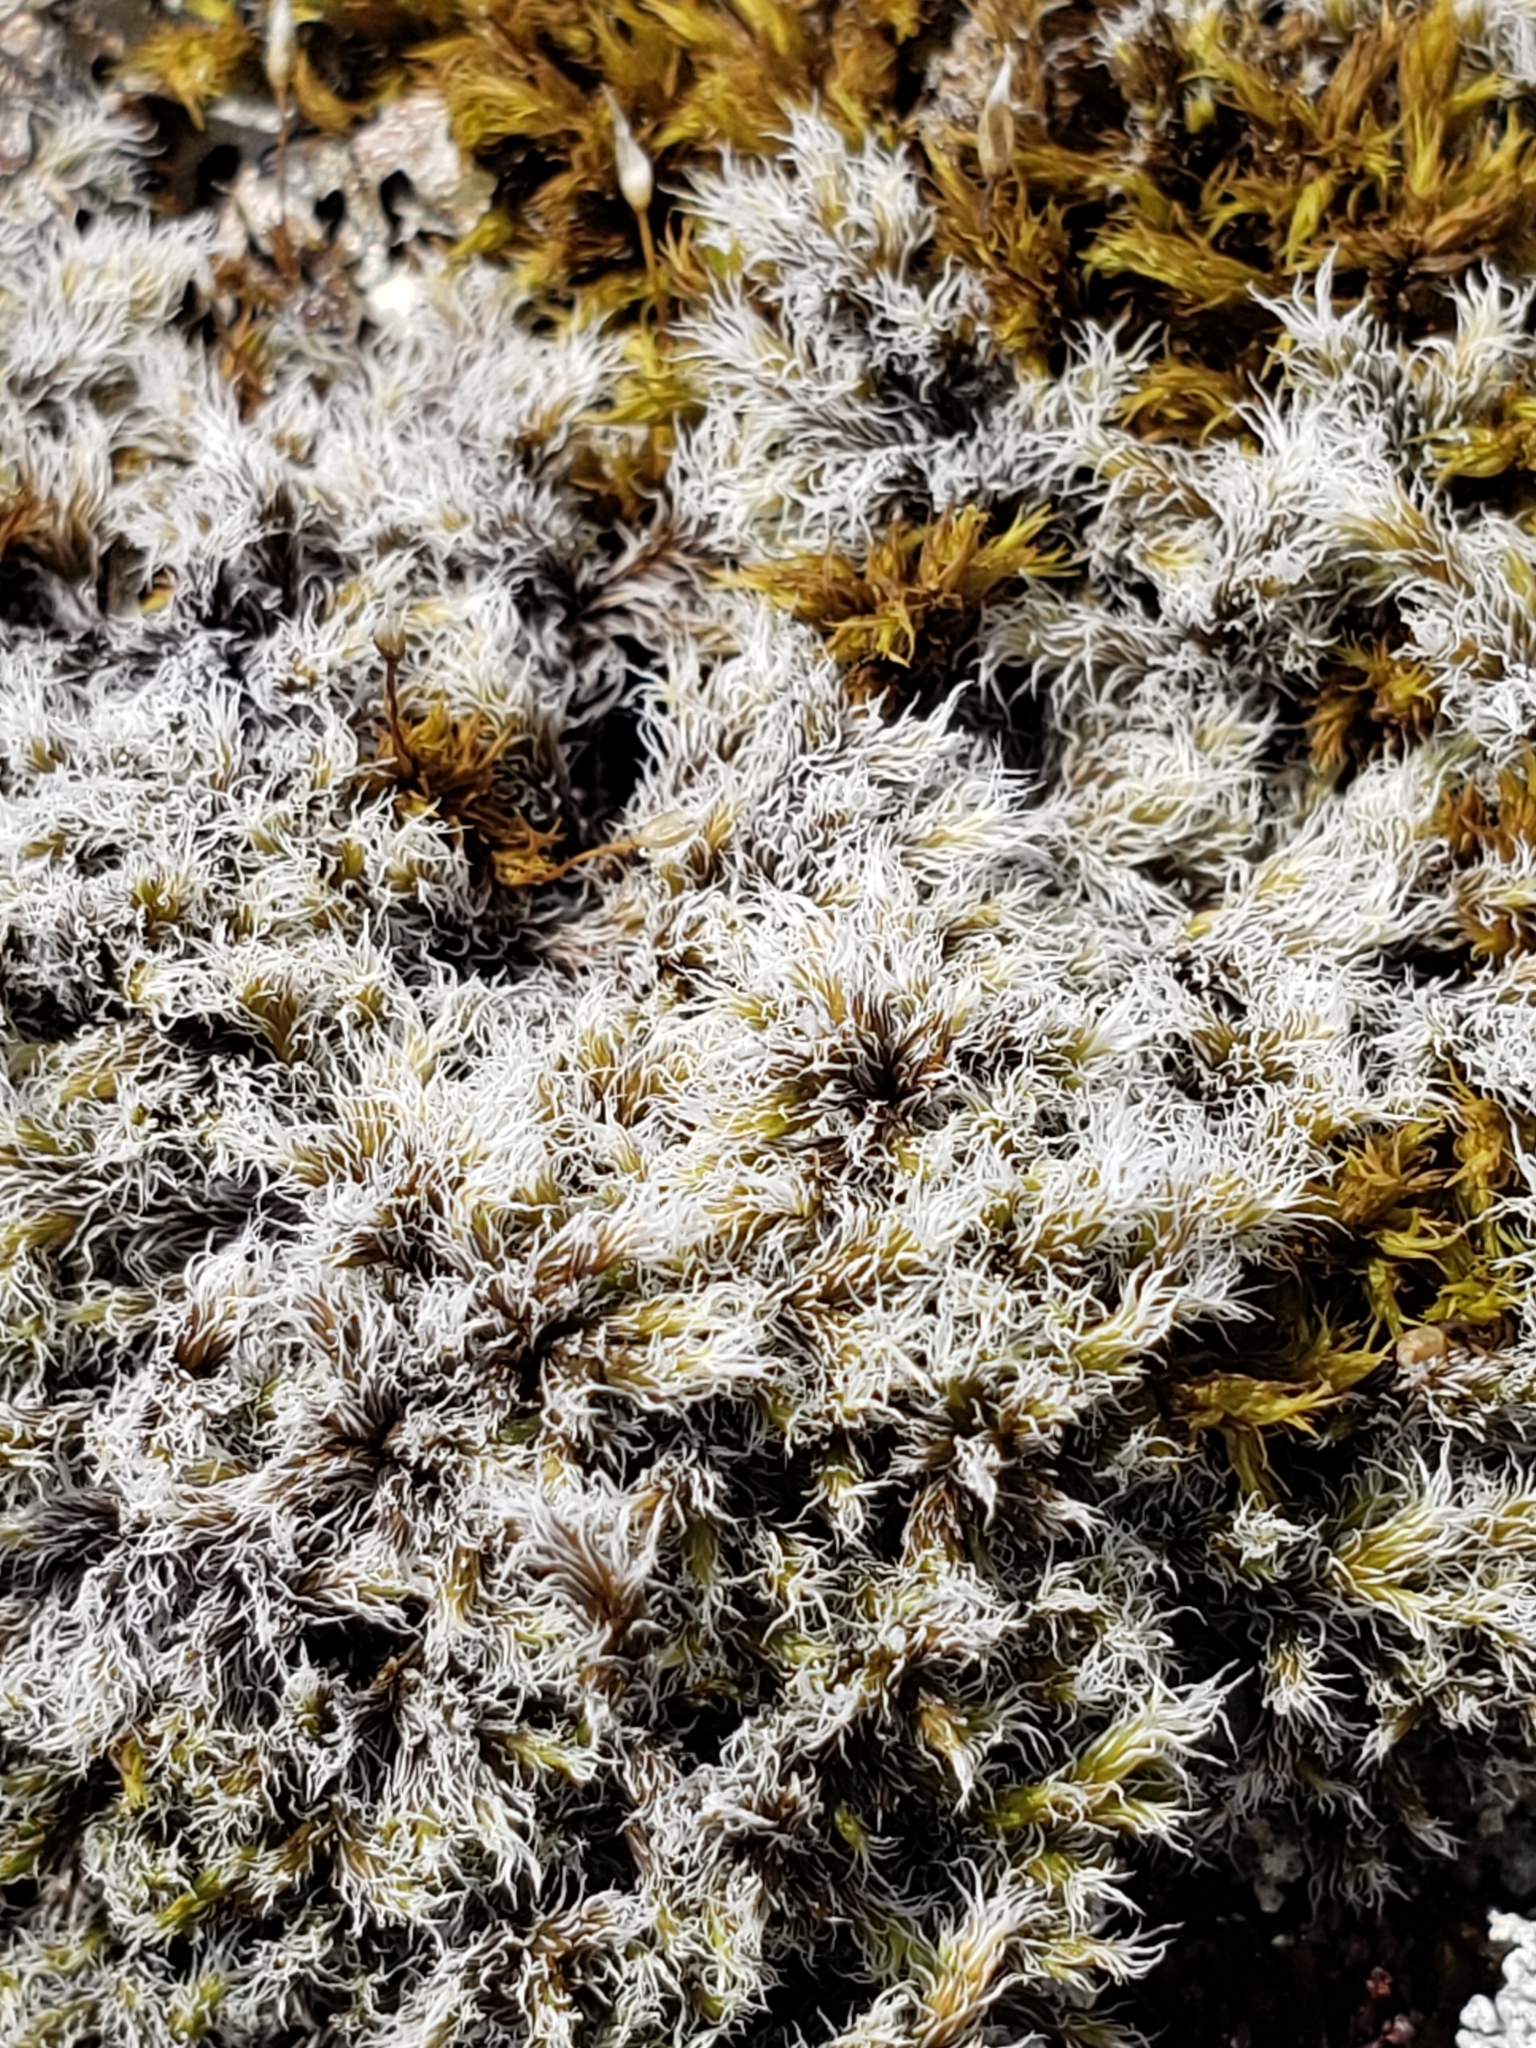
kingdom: Plantae
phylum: Bryophyta
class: Bryopsida
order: Grimmiales
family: Grimmiaceae
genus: Racomitrium
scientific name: Racomitrium lanuginosum
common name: Hoary rock moss
